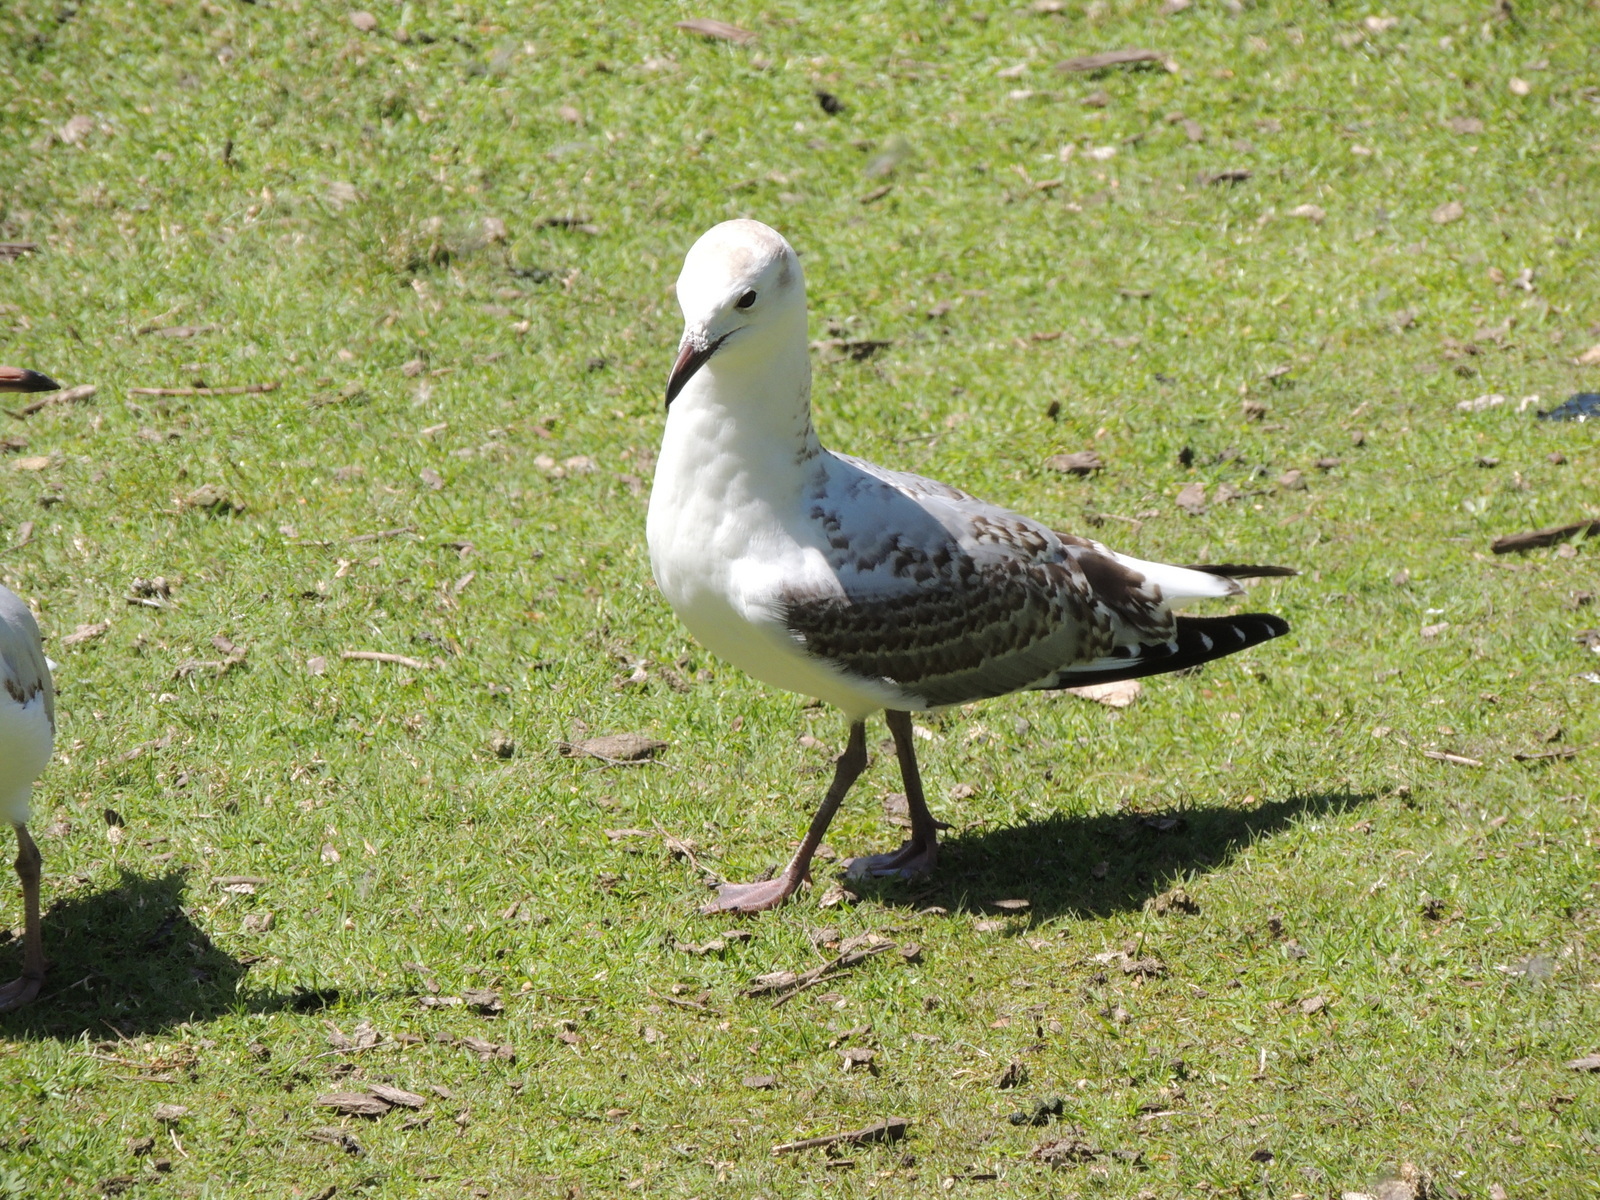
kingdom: Animalia
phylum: Chordata
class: Aves
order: Charadriiformes
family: Laridae
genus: Chroicocephalus
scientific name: Chroicocephalus novaehollandiae
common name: Silver gull
